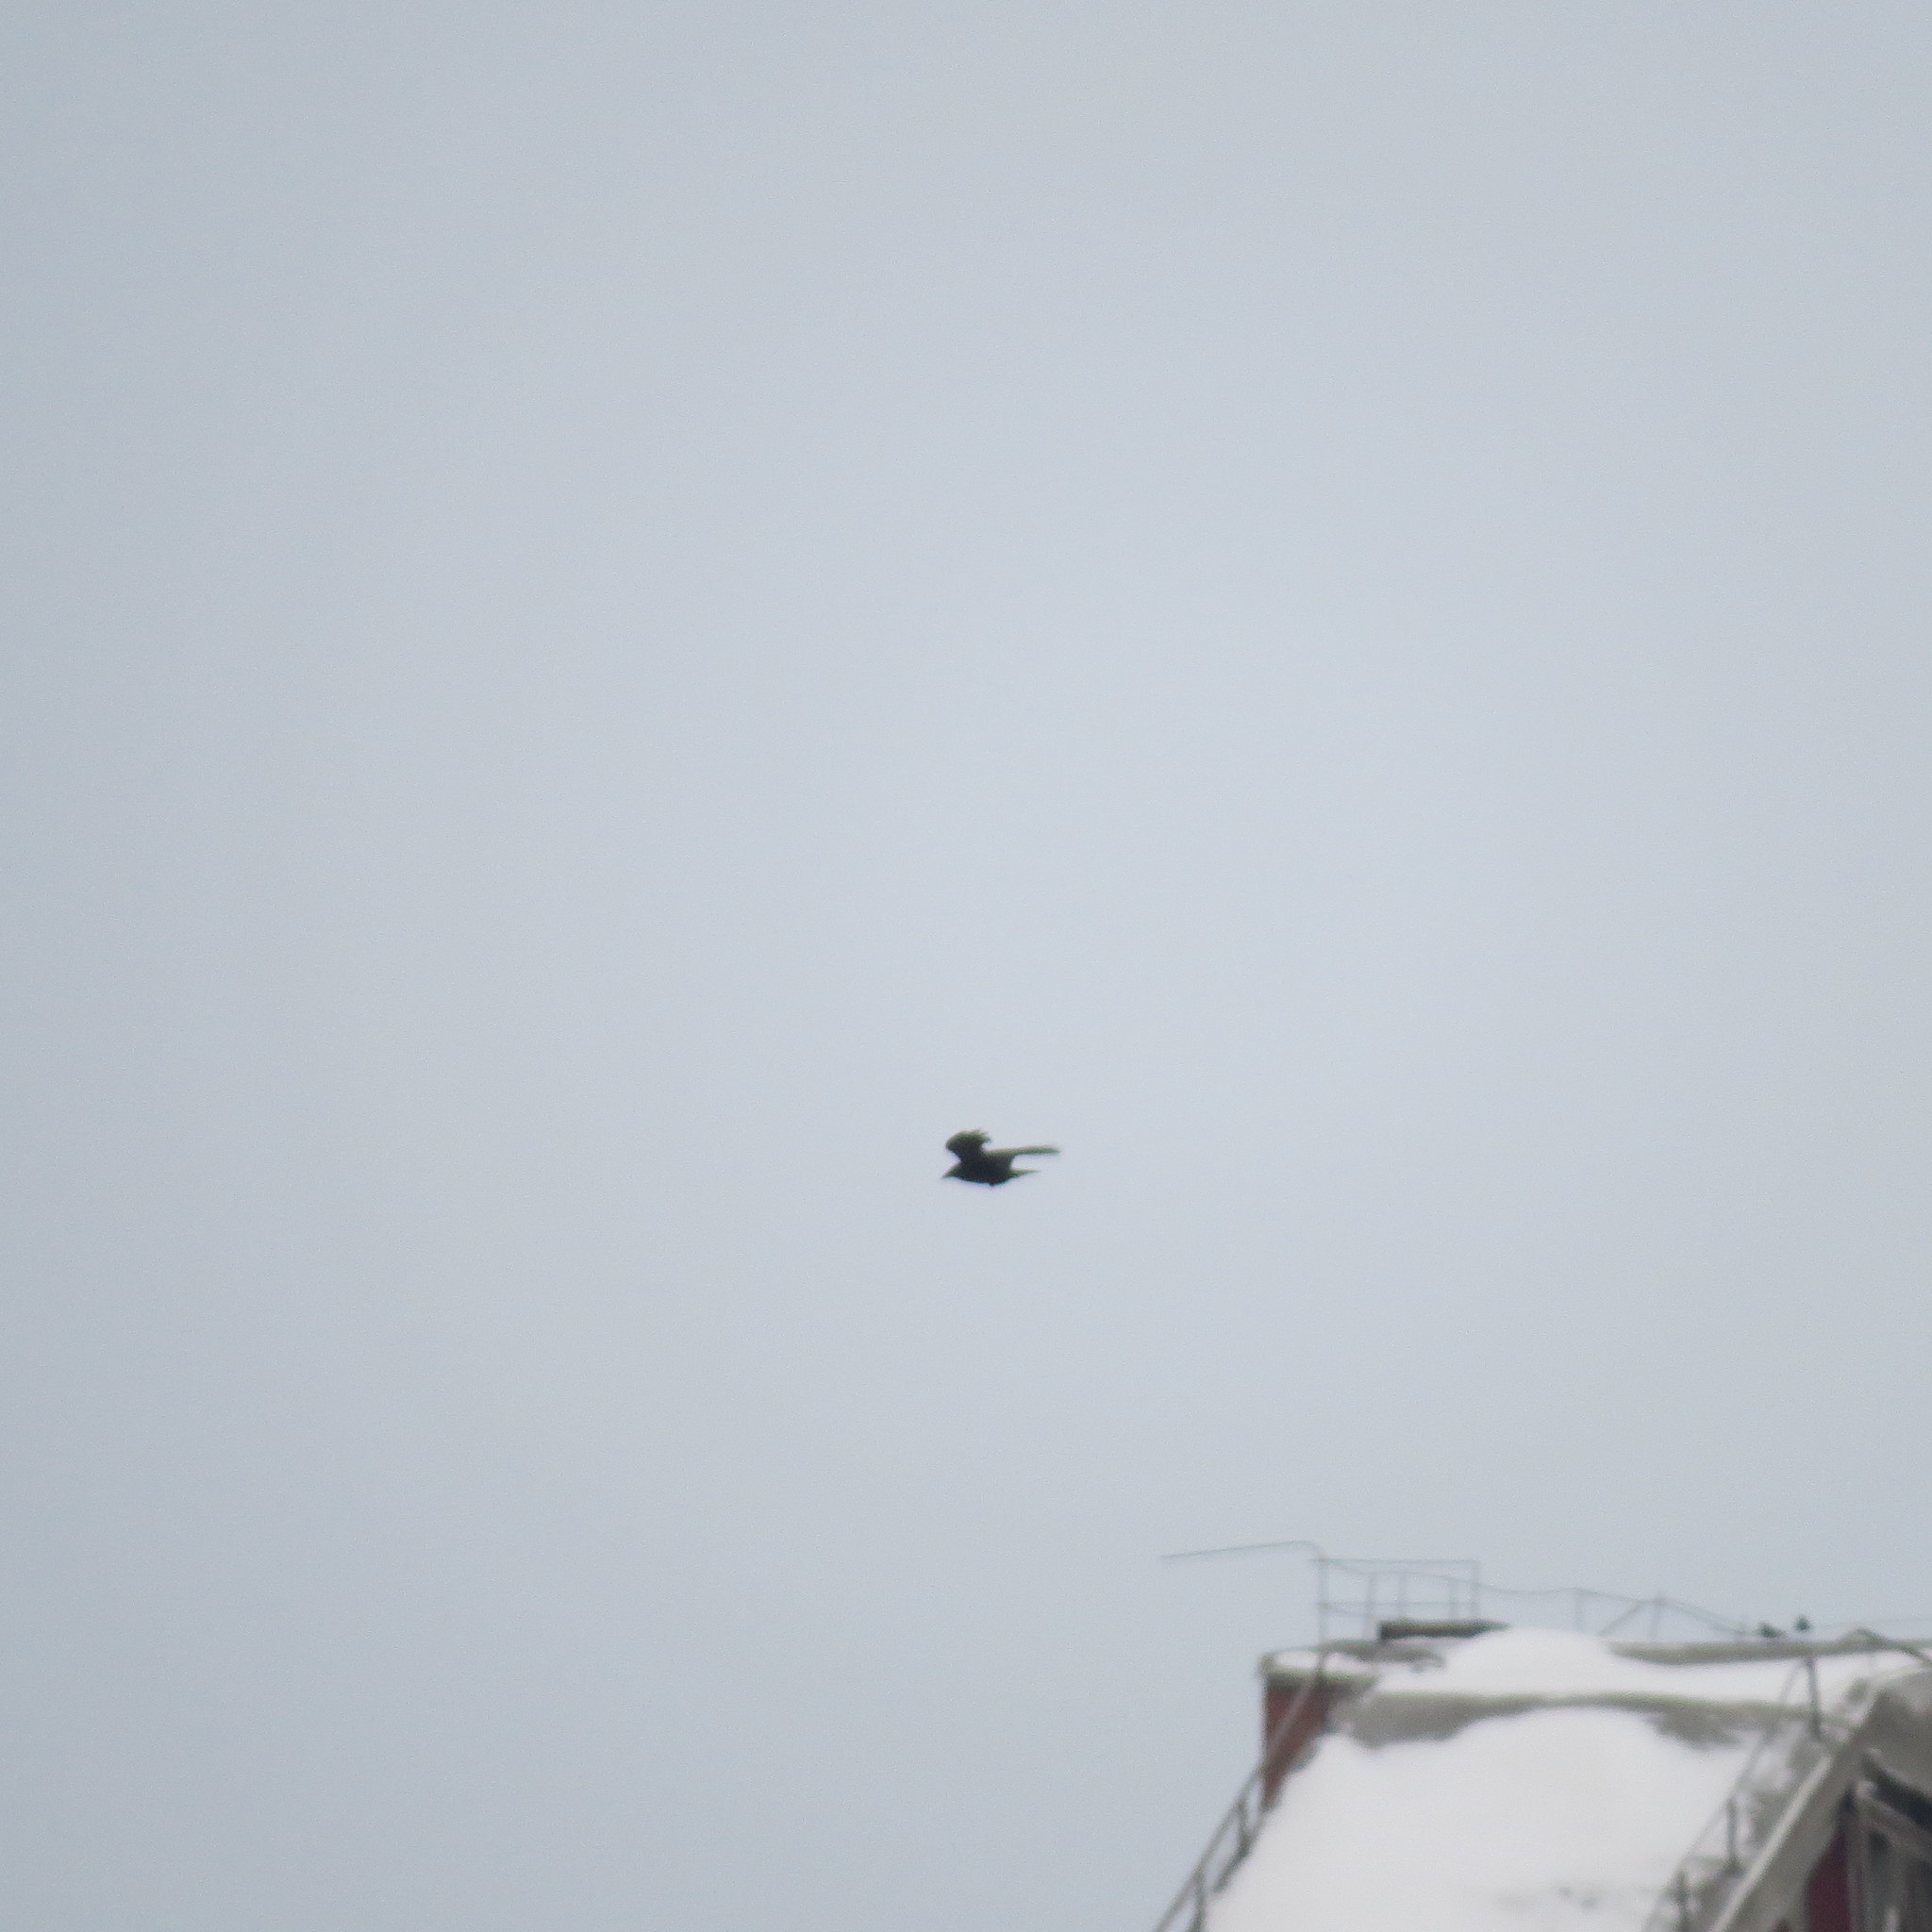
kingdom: Animalia
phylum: Chordata
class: Aves
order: Passeriformes
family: Corvidae
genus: Corvus
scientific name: Corvus corax
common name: Common raven
